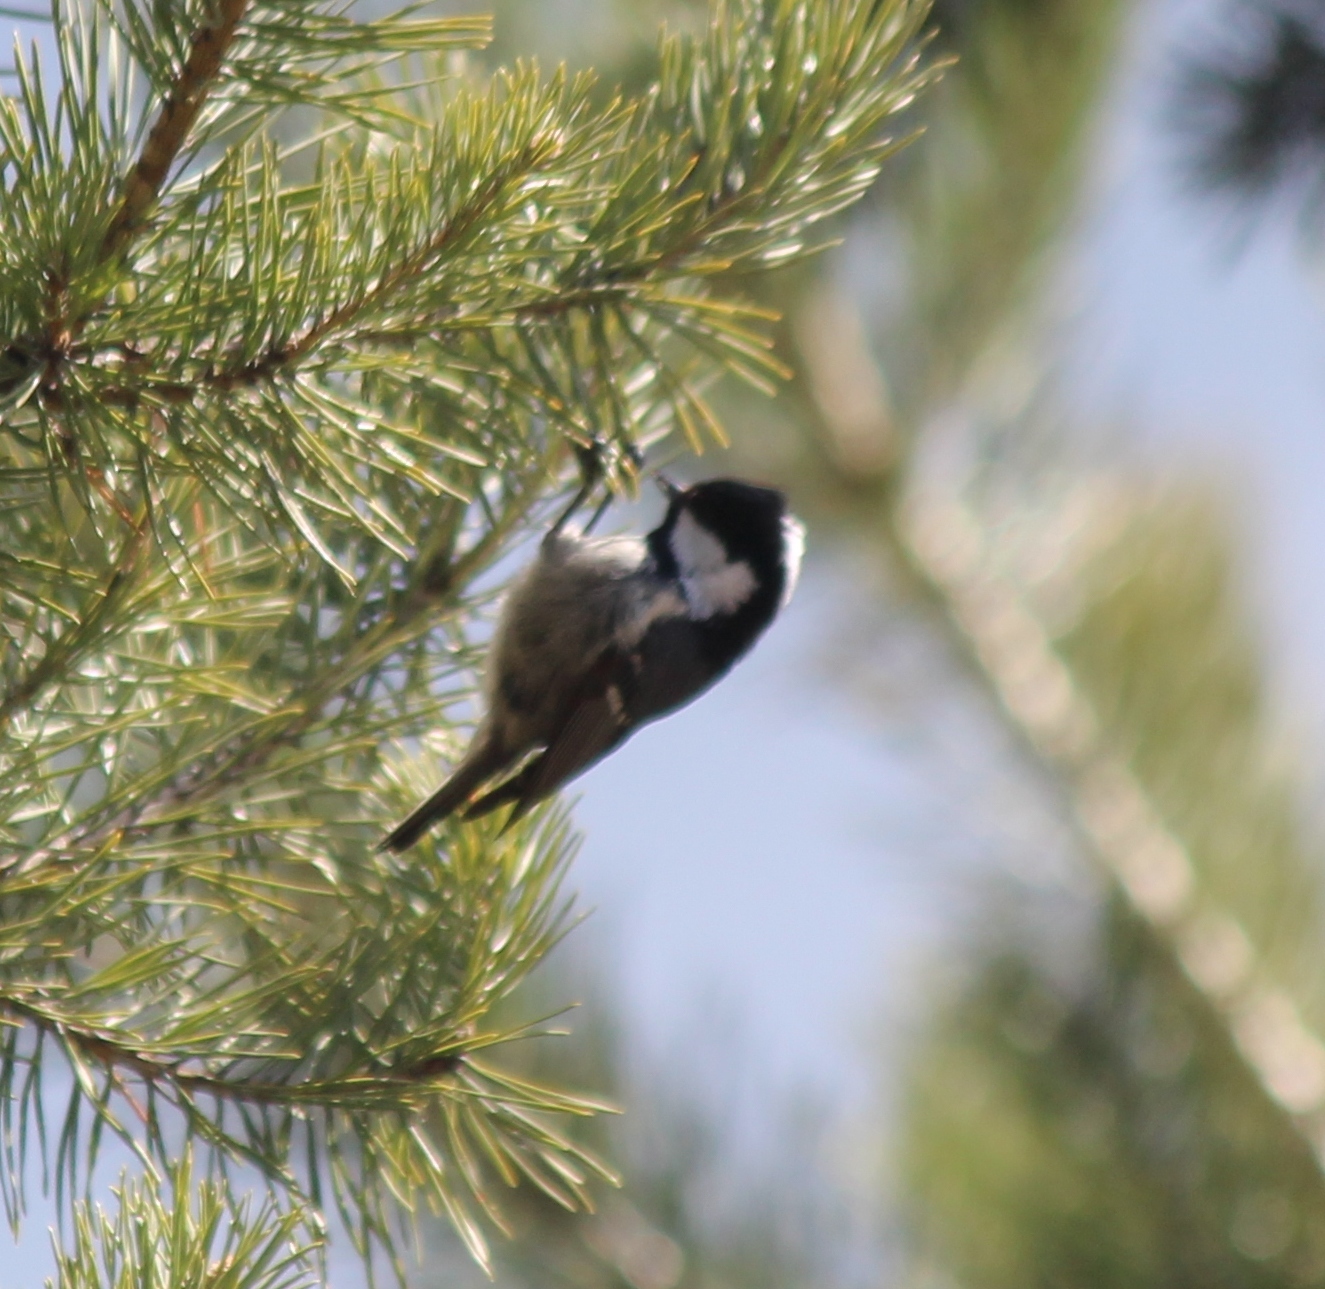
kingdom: Animalia
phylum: Chordata
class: Aves
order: Passeriformes
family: Paridae
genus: Periparus
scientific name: Periparus ater
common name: Coal tit
